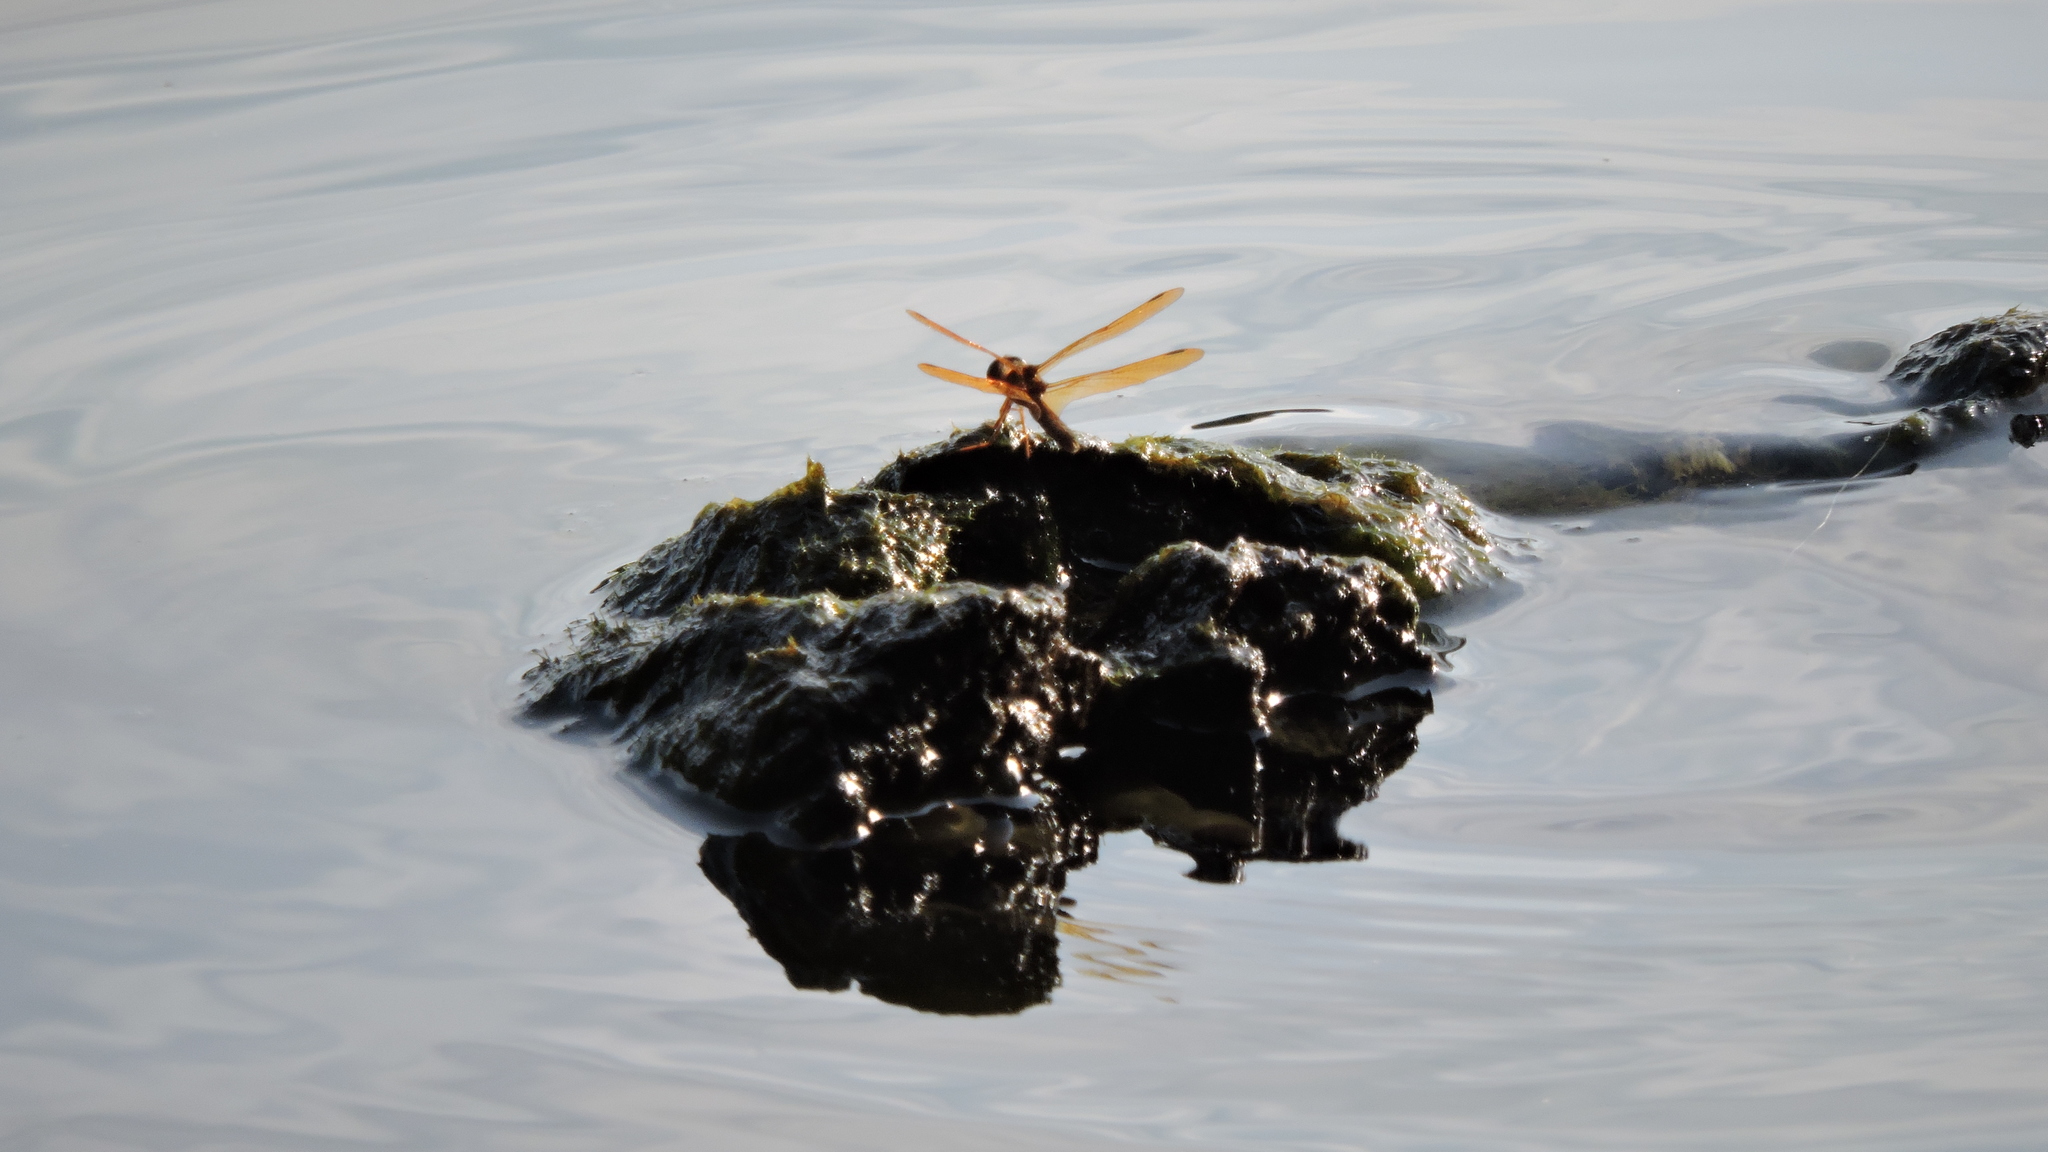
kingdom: Animalia
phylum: Arthropoda
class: Insecta
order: Odonata
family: Libellulidae
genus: Perithemis
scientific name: Perithemis tenera
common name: Eastern amberwing
